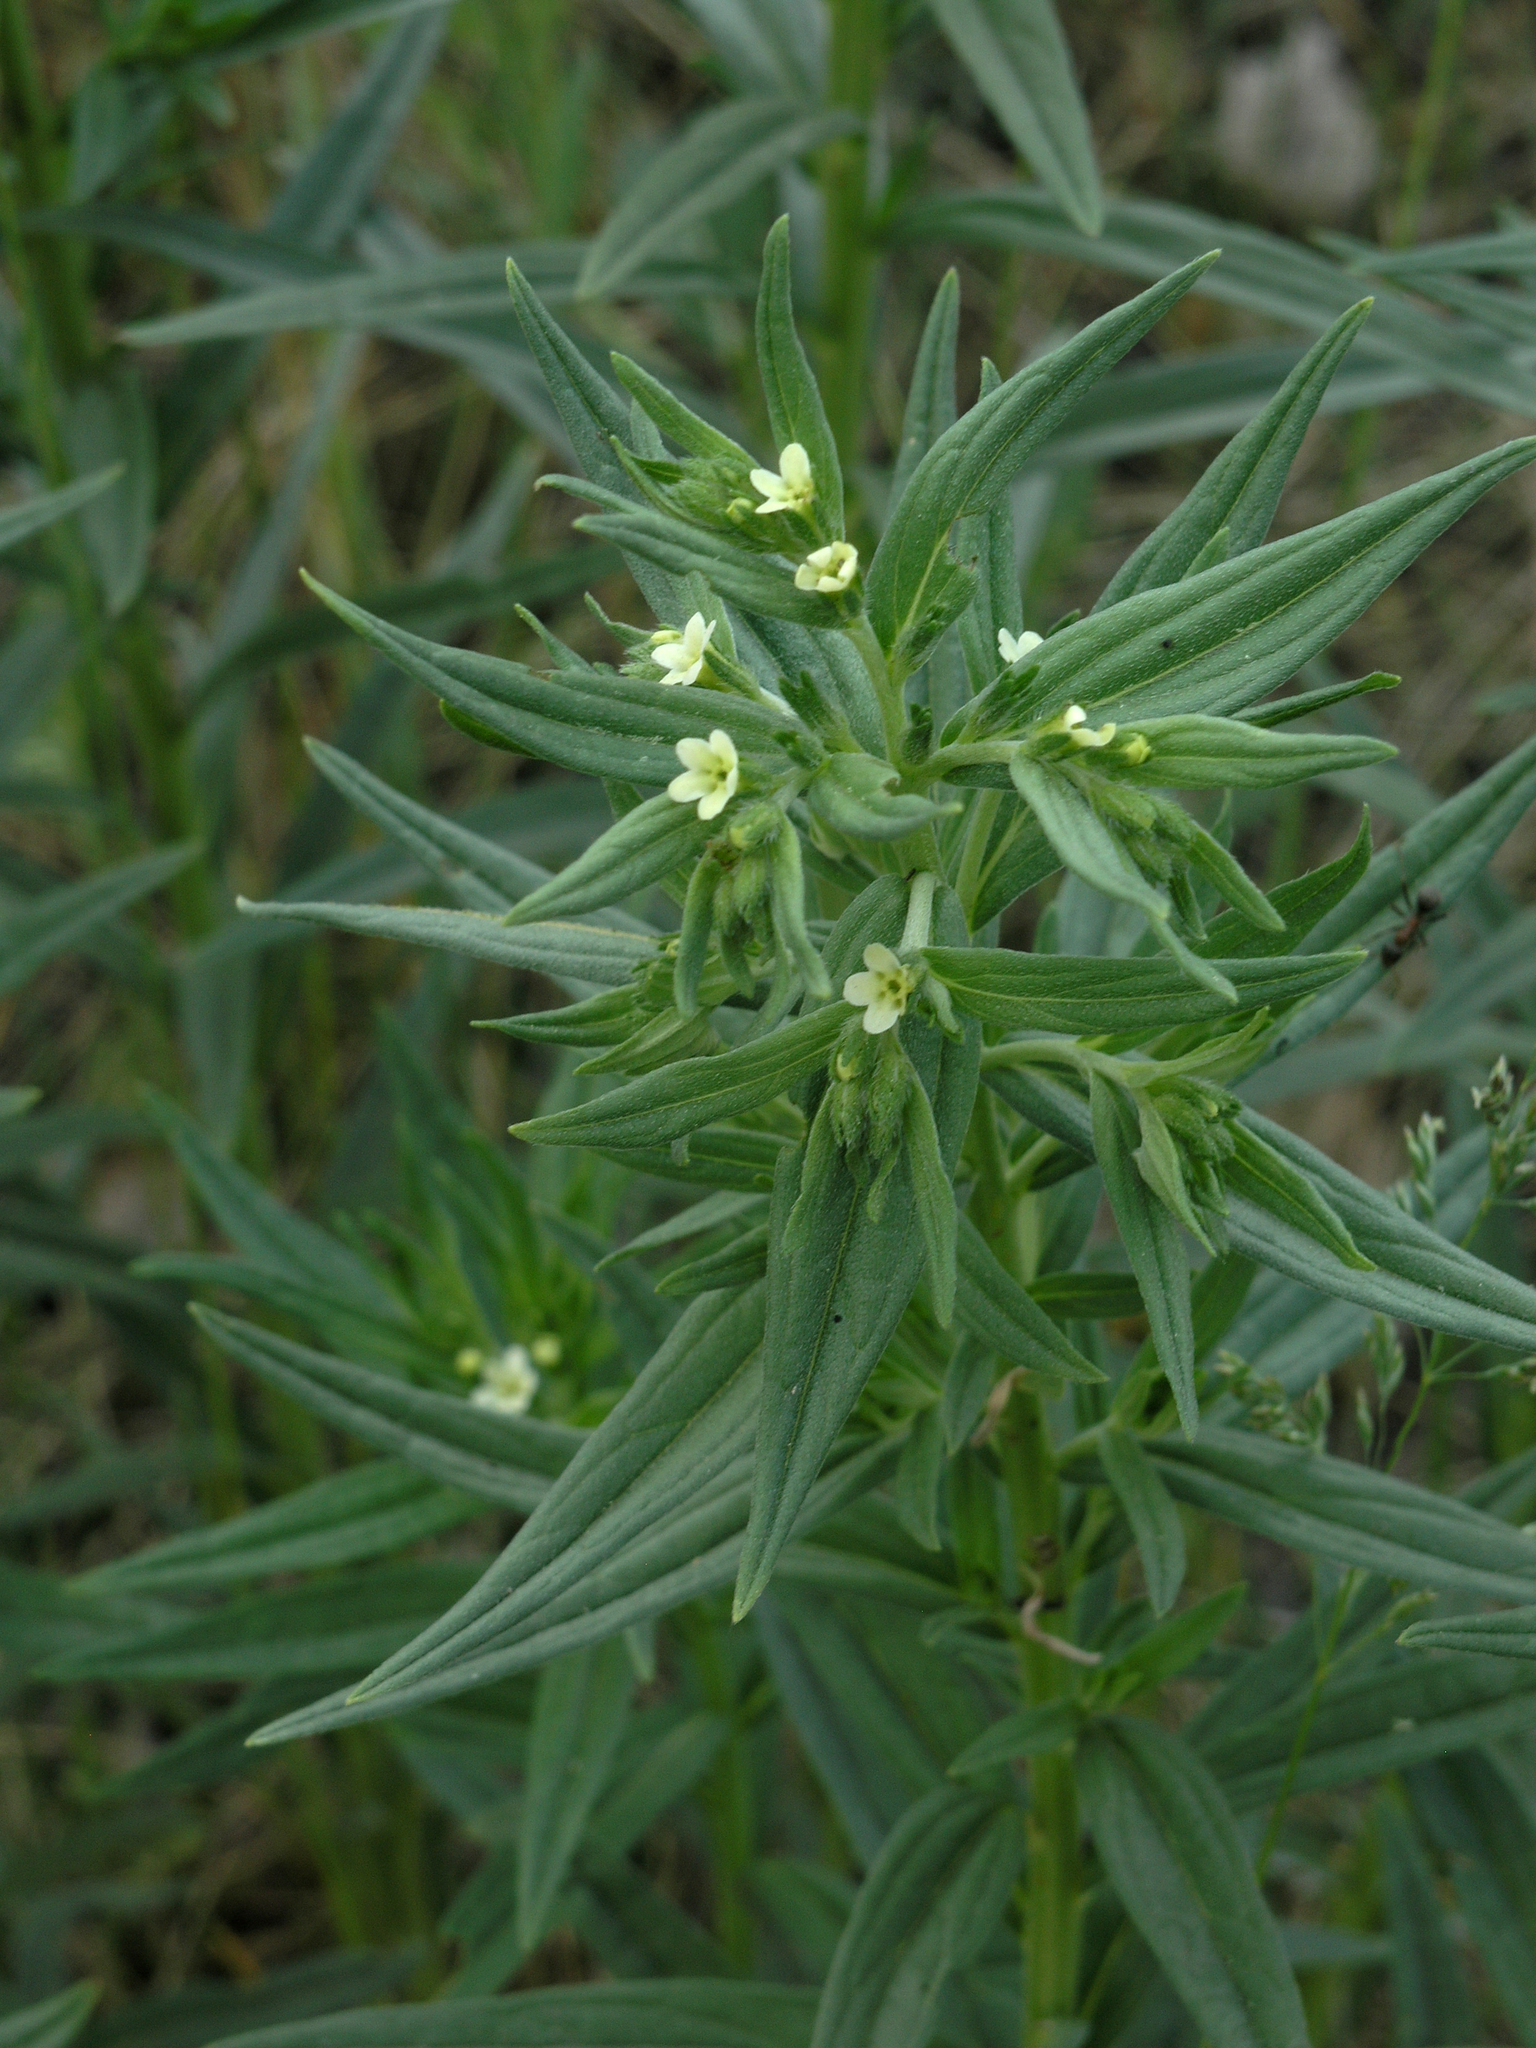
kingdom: Plantae
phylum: Tracheophyta
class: Magnoliopsida
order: Boraginales
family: Boraginaceae
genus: Lithospermum
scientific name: Lithospermum officinale
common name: Common gromwell
